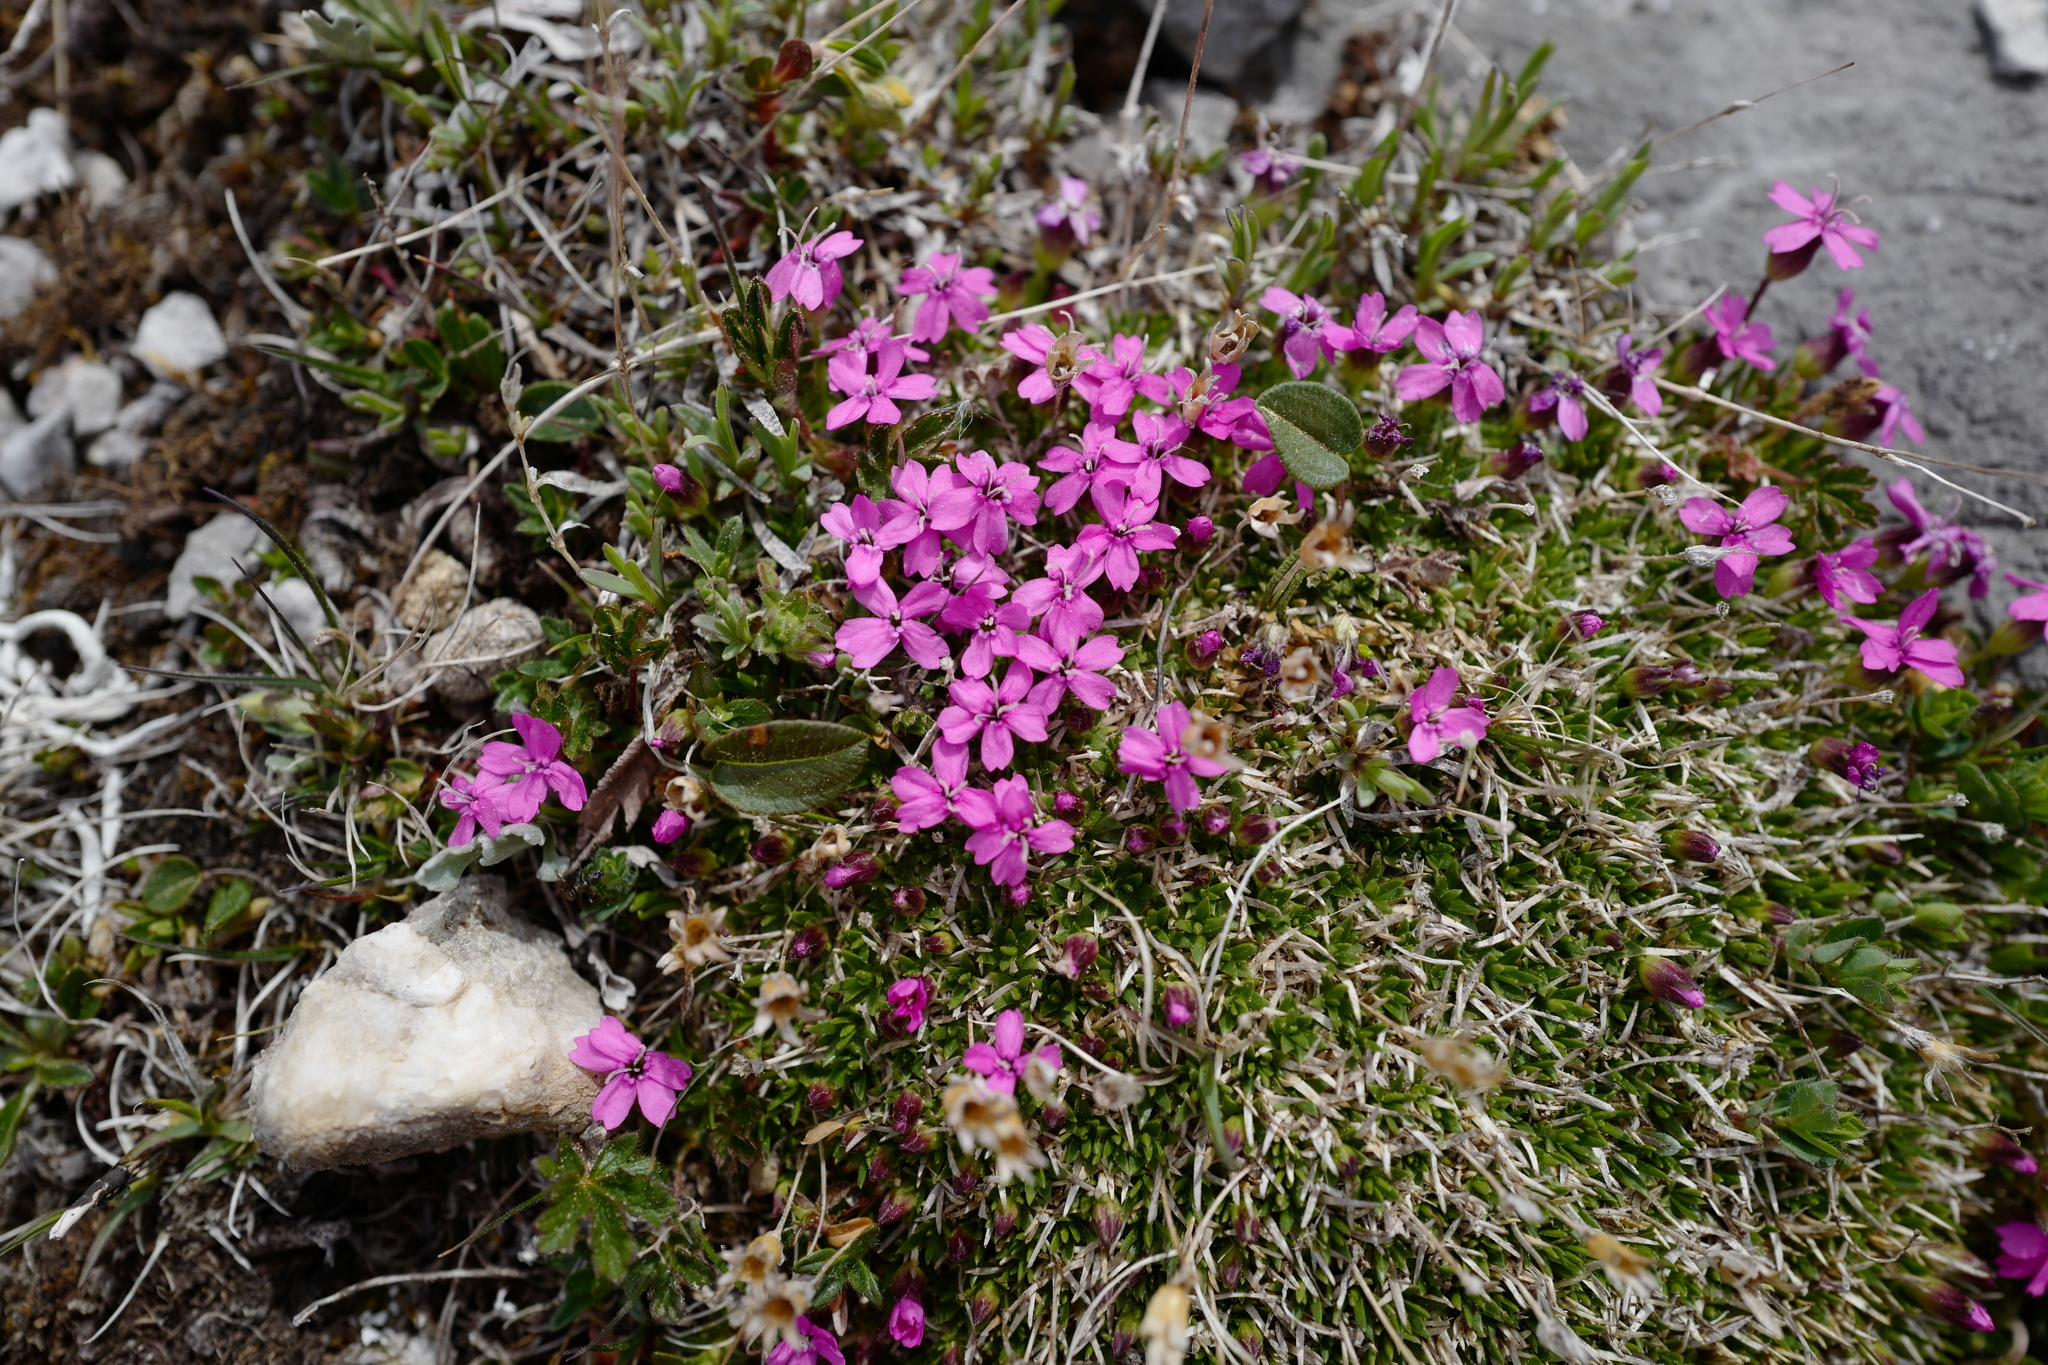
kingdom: Plantae
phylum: Tracheophyta
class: Magnoliopsida
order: Caryophyllales
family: Caryophyllaceae
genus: Silene
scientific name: Silene acaulis
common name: Moss campion
